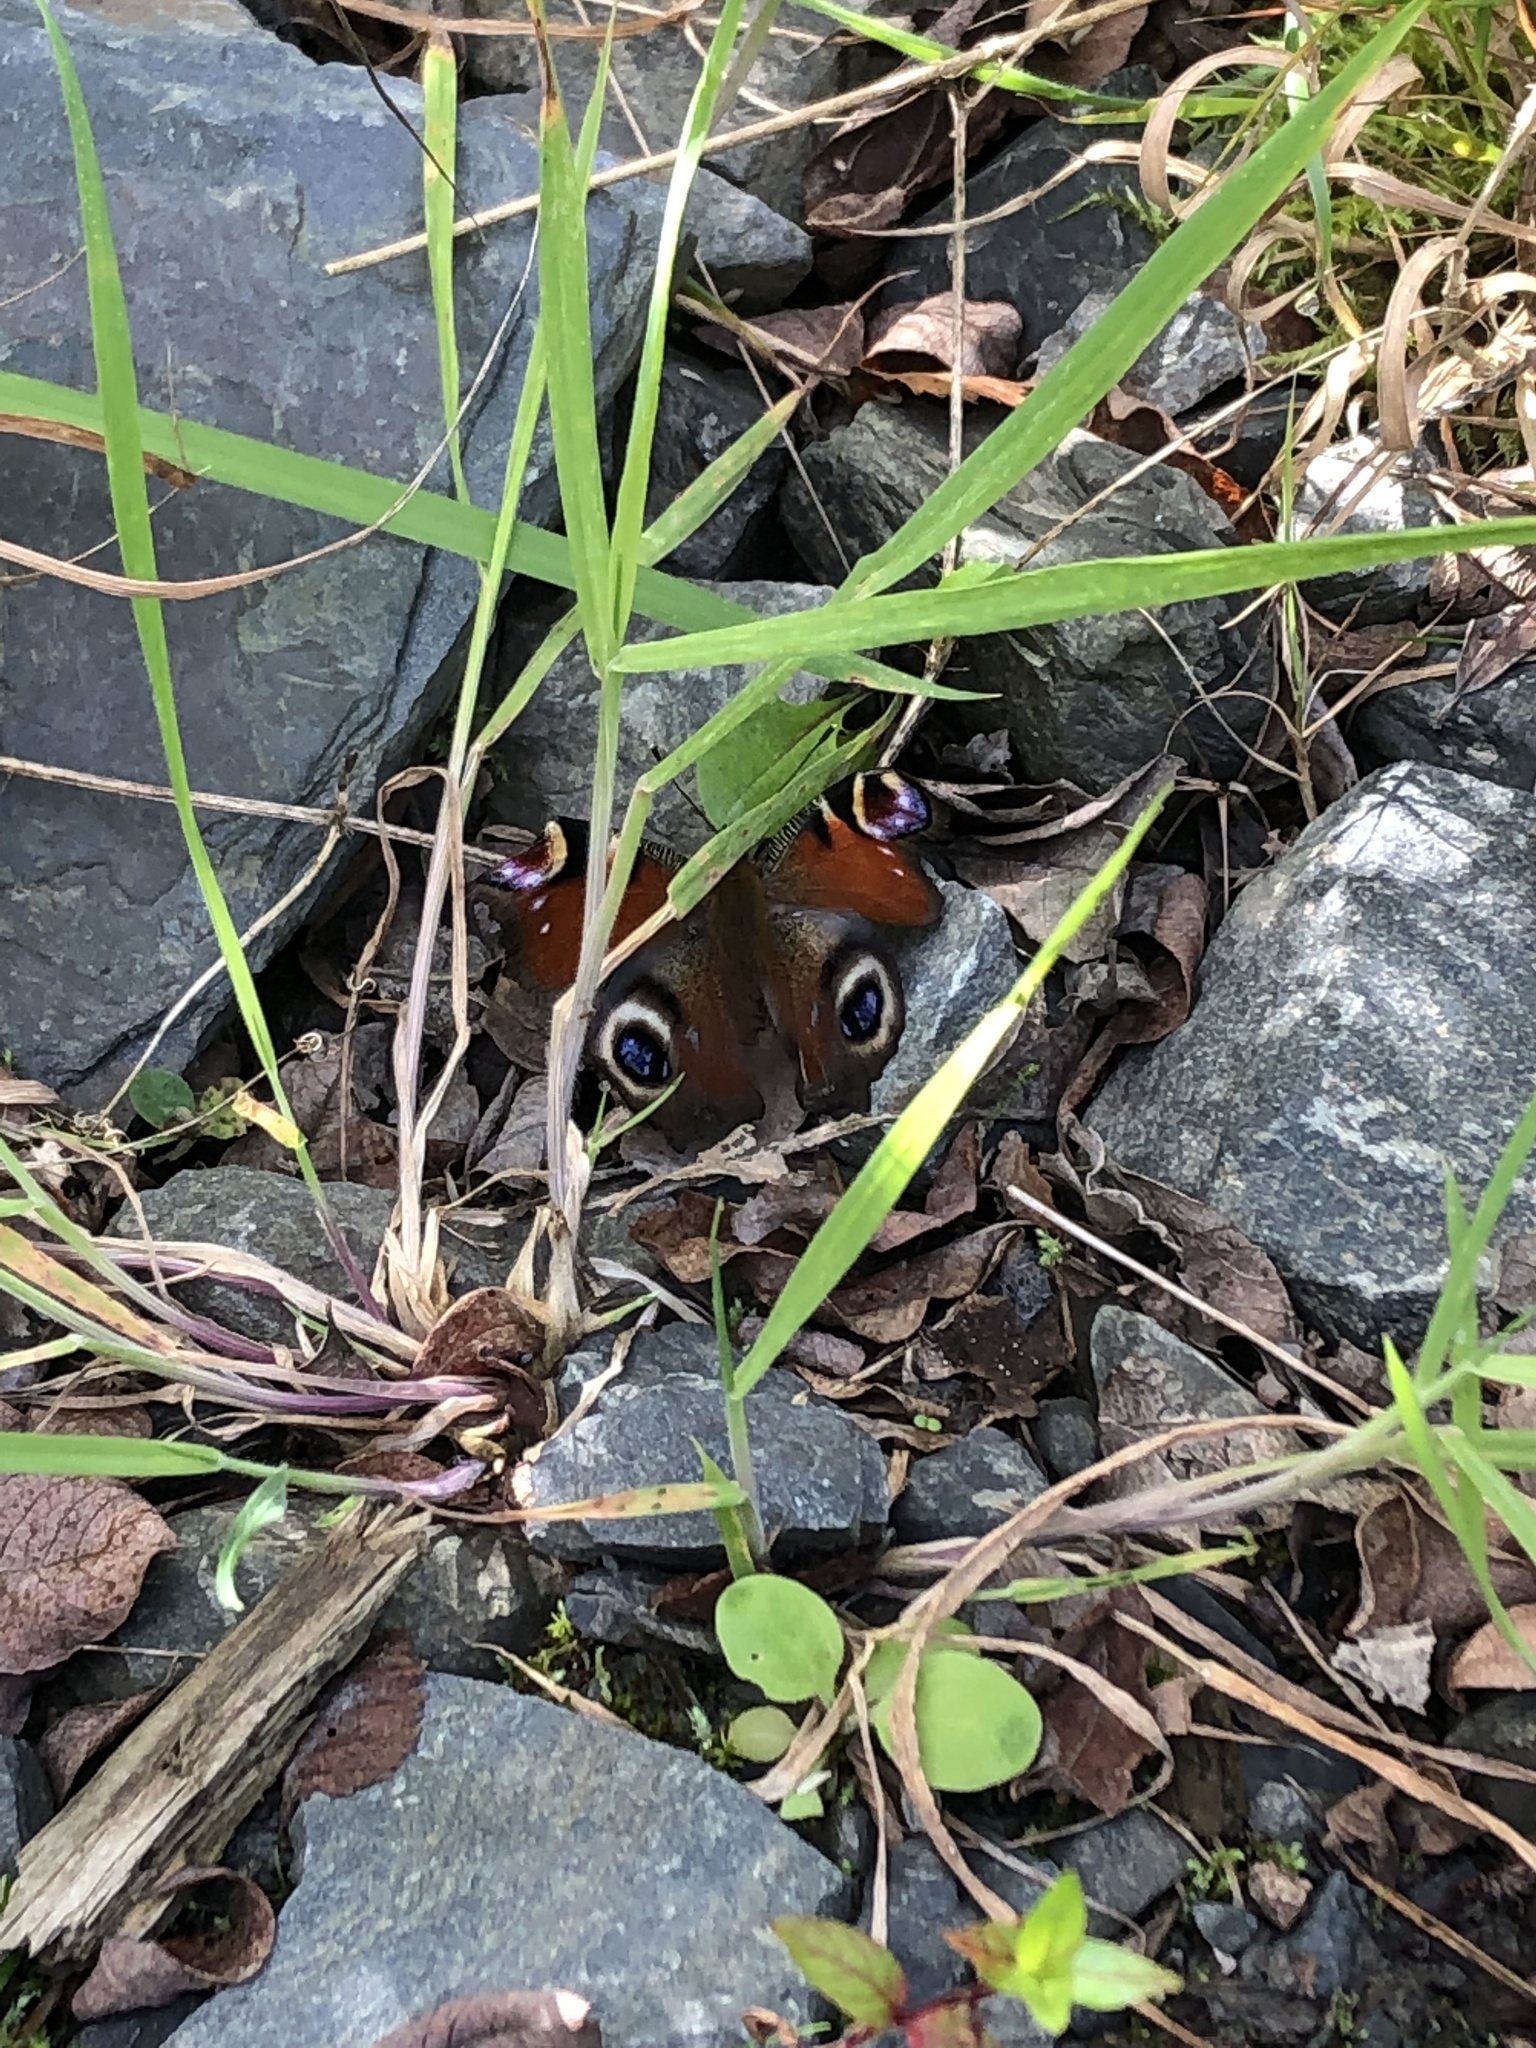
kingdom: Animalia
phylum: Arthropoda
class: Insecta
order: Lepidoptera
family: Nymphalidae
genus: Aglais
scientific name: Aglais io
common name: Peacock
